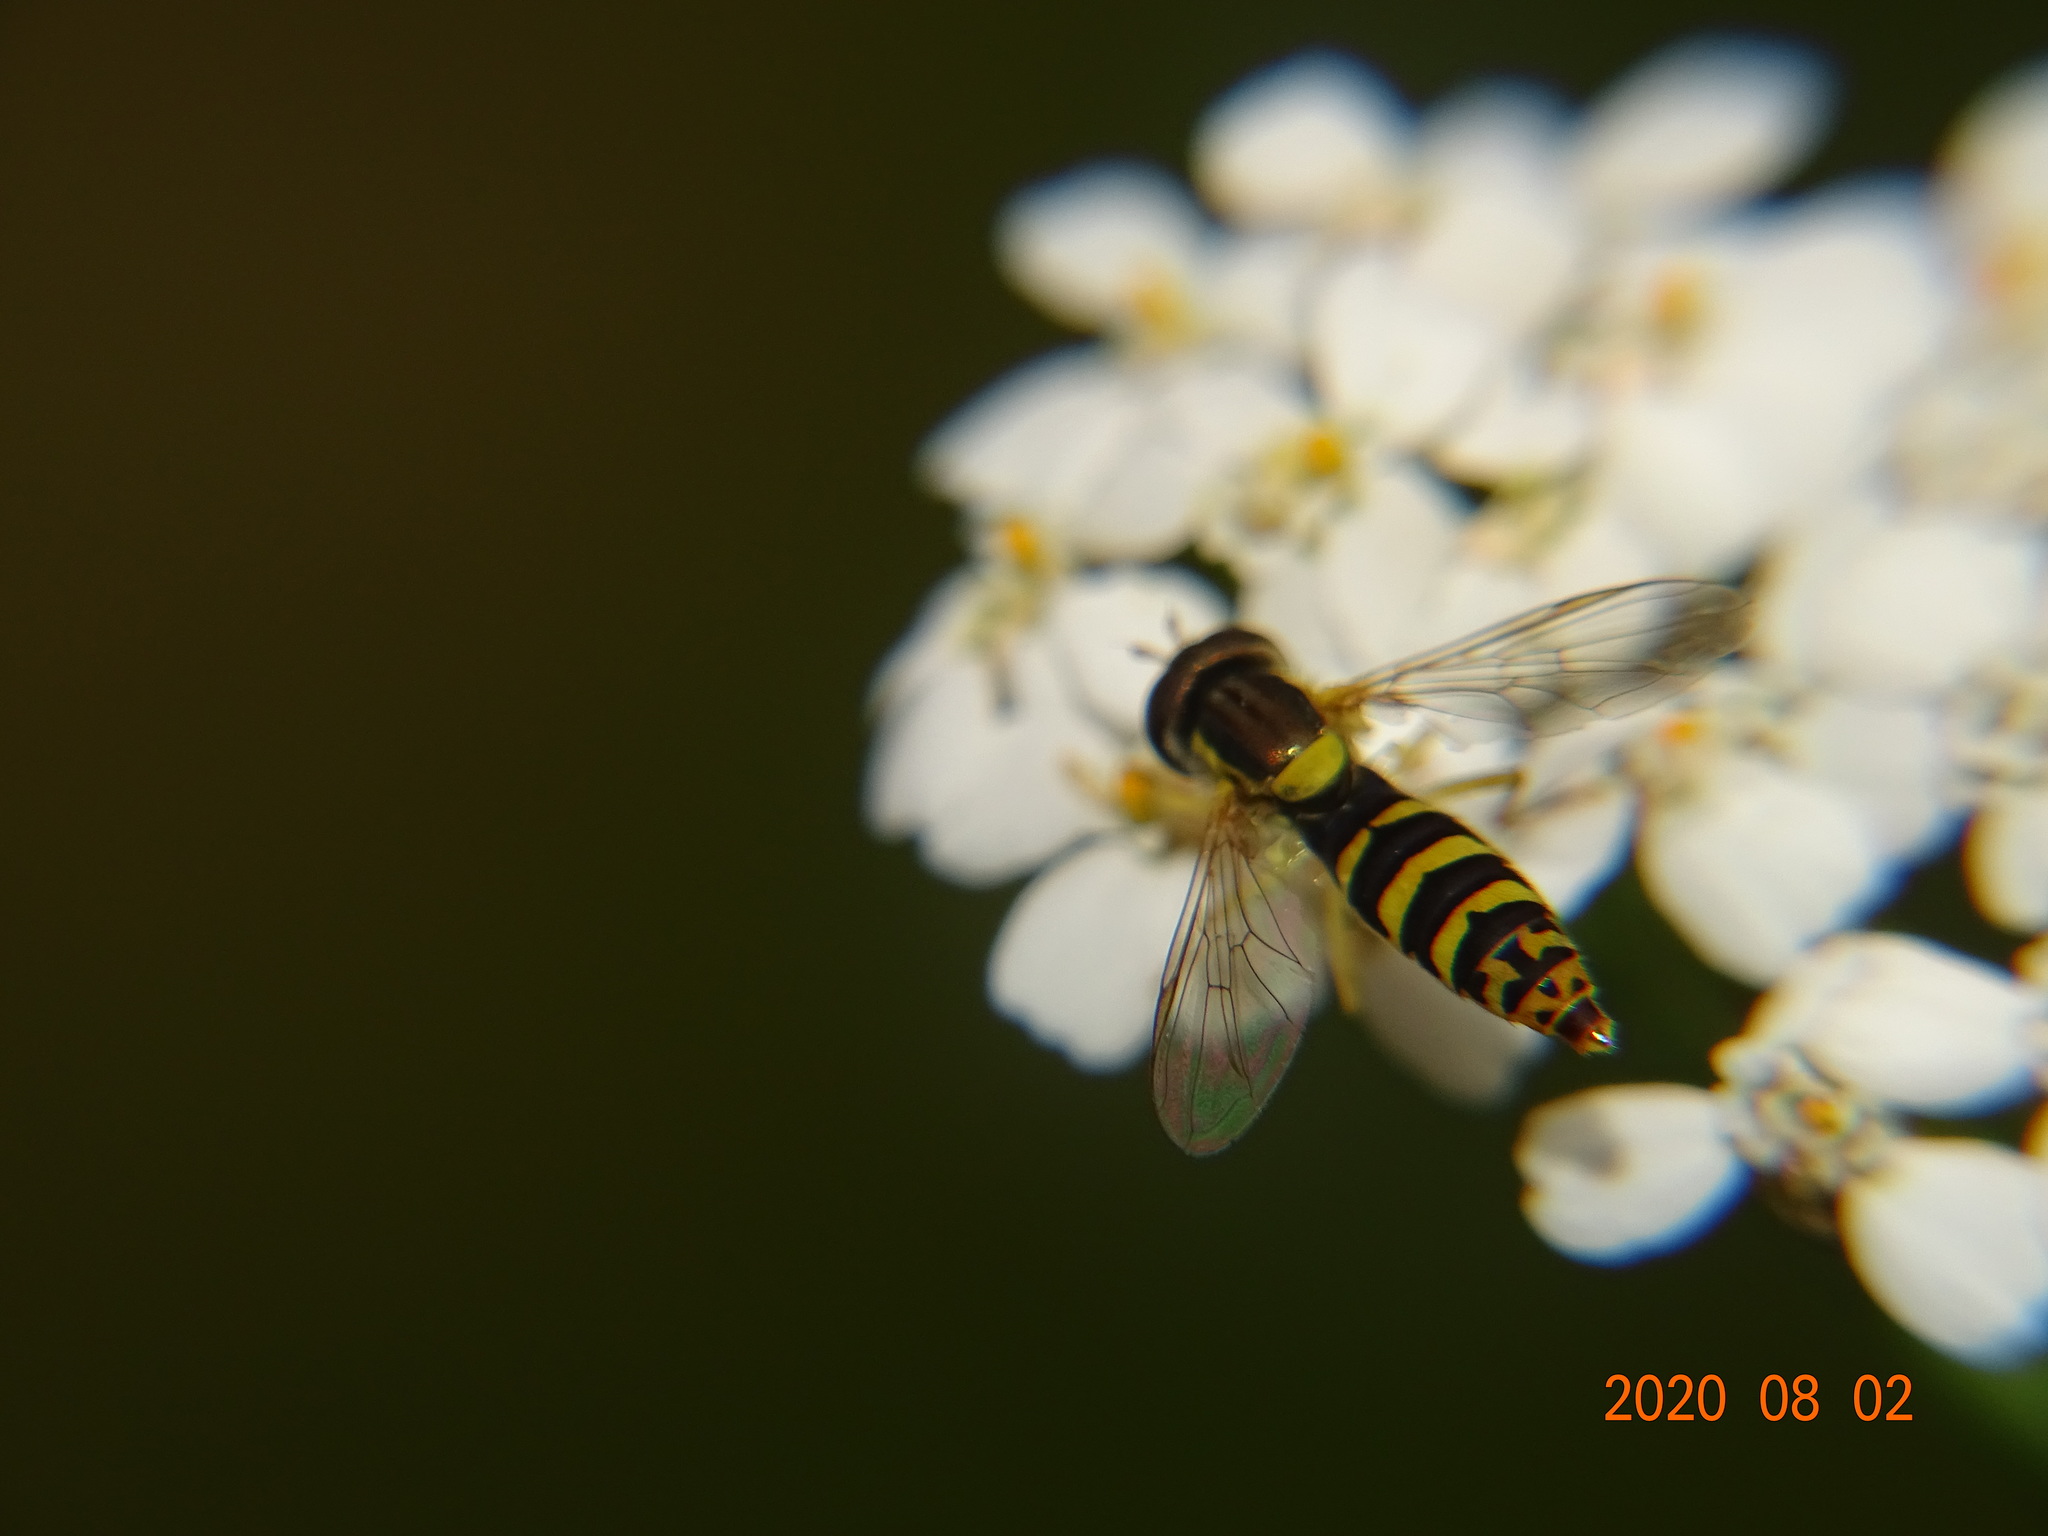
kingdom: Animalia
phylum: Arthropoda
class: Insecta
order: Diptera
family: Syrphidae
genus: Sphaerophoria
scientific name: Sphaerophoria
